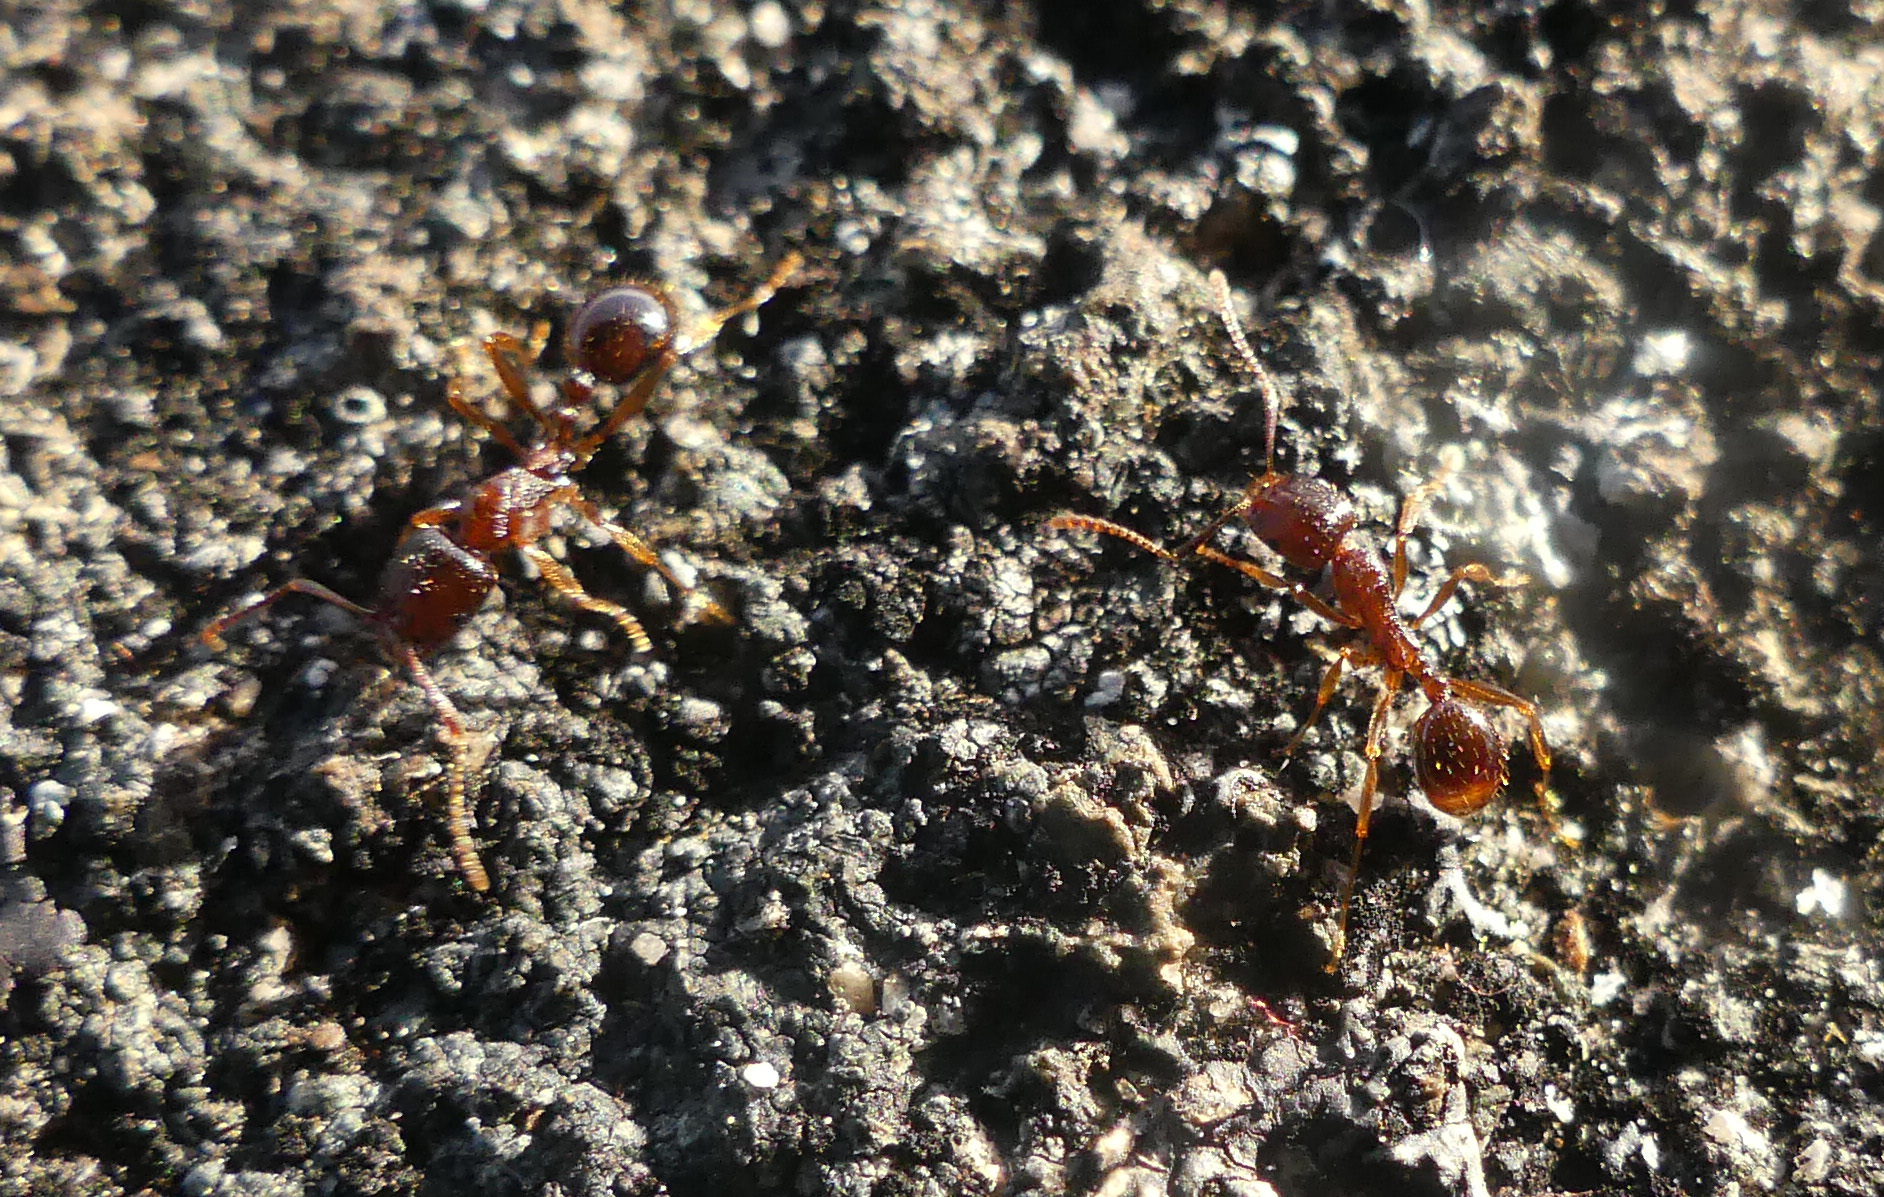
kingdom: Animalia
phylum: Arthropoda
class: Insecta
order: Hymenoptera
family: Formicidae
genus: Aphaenogaster
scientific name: Aphaenogaster occidentalis
